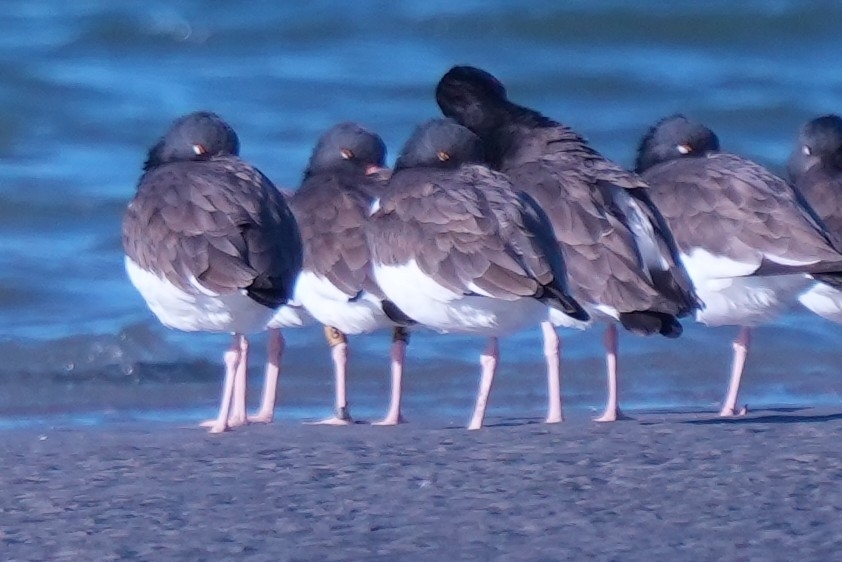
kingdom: Animalia
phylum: Chordata
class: Aves
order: Charadriiformes
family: Haematopodidae
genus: Haematopus
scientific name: Haematopus palliatus
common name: American oystercatcher
